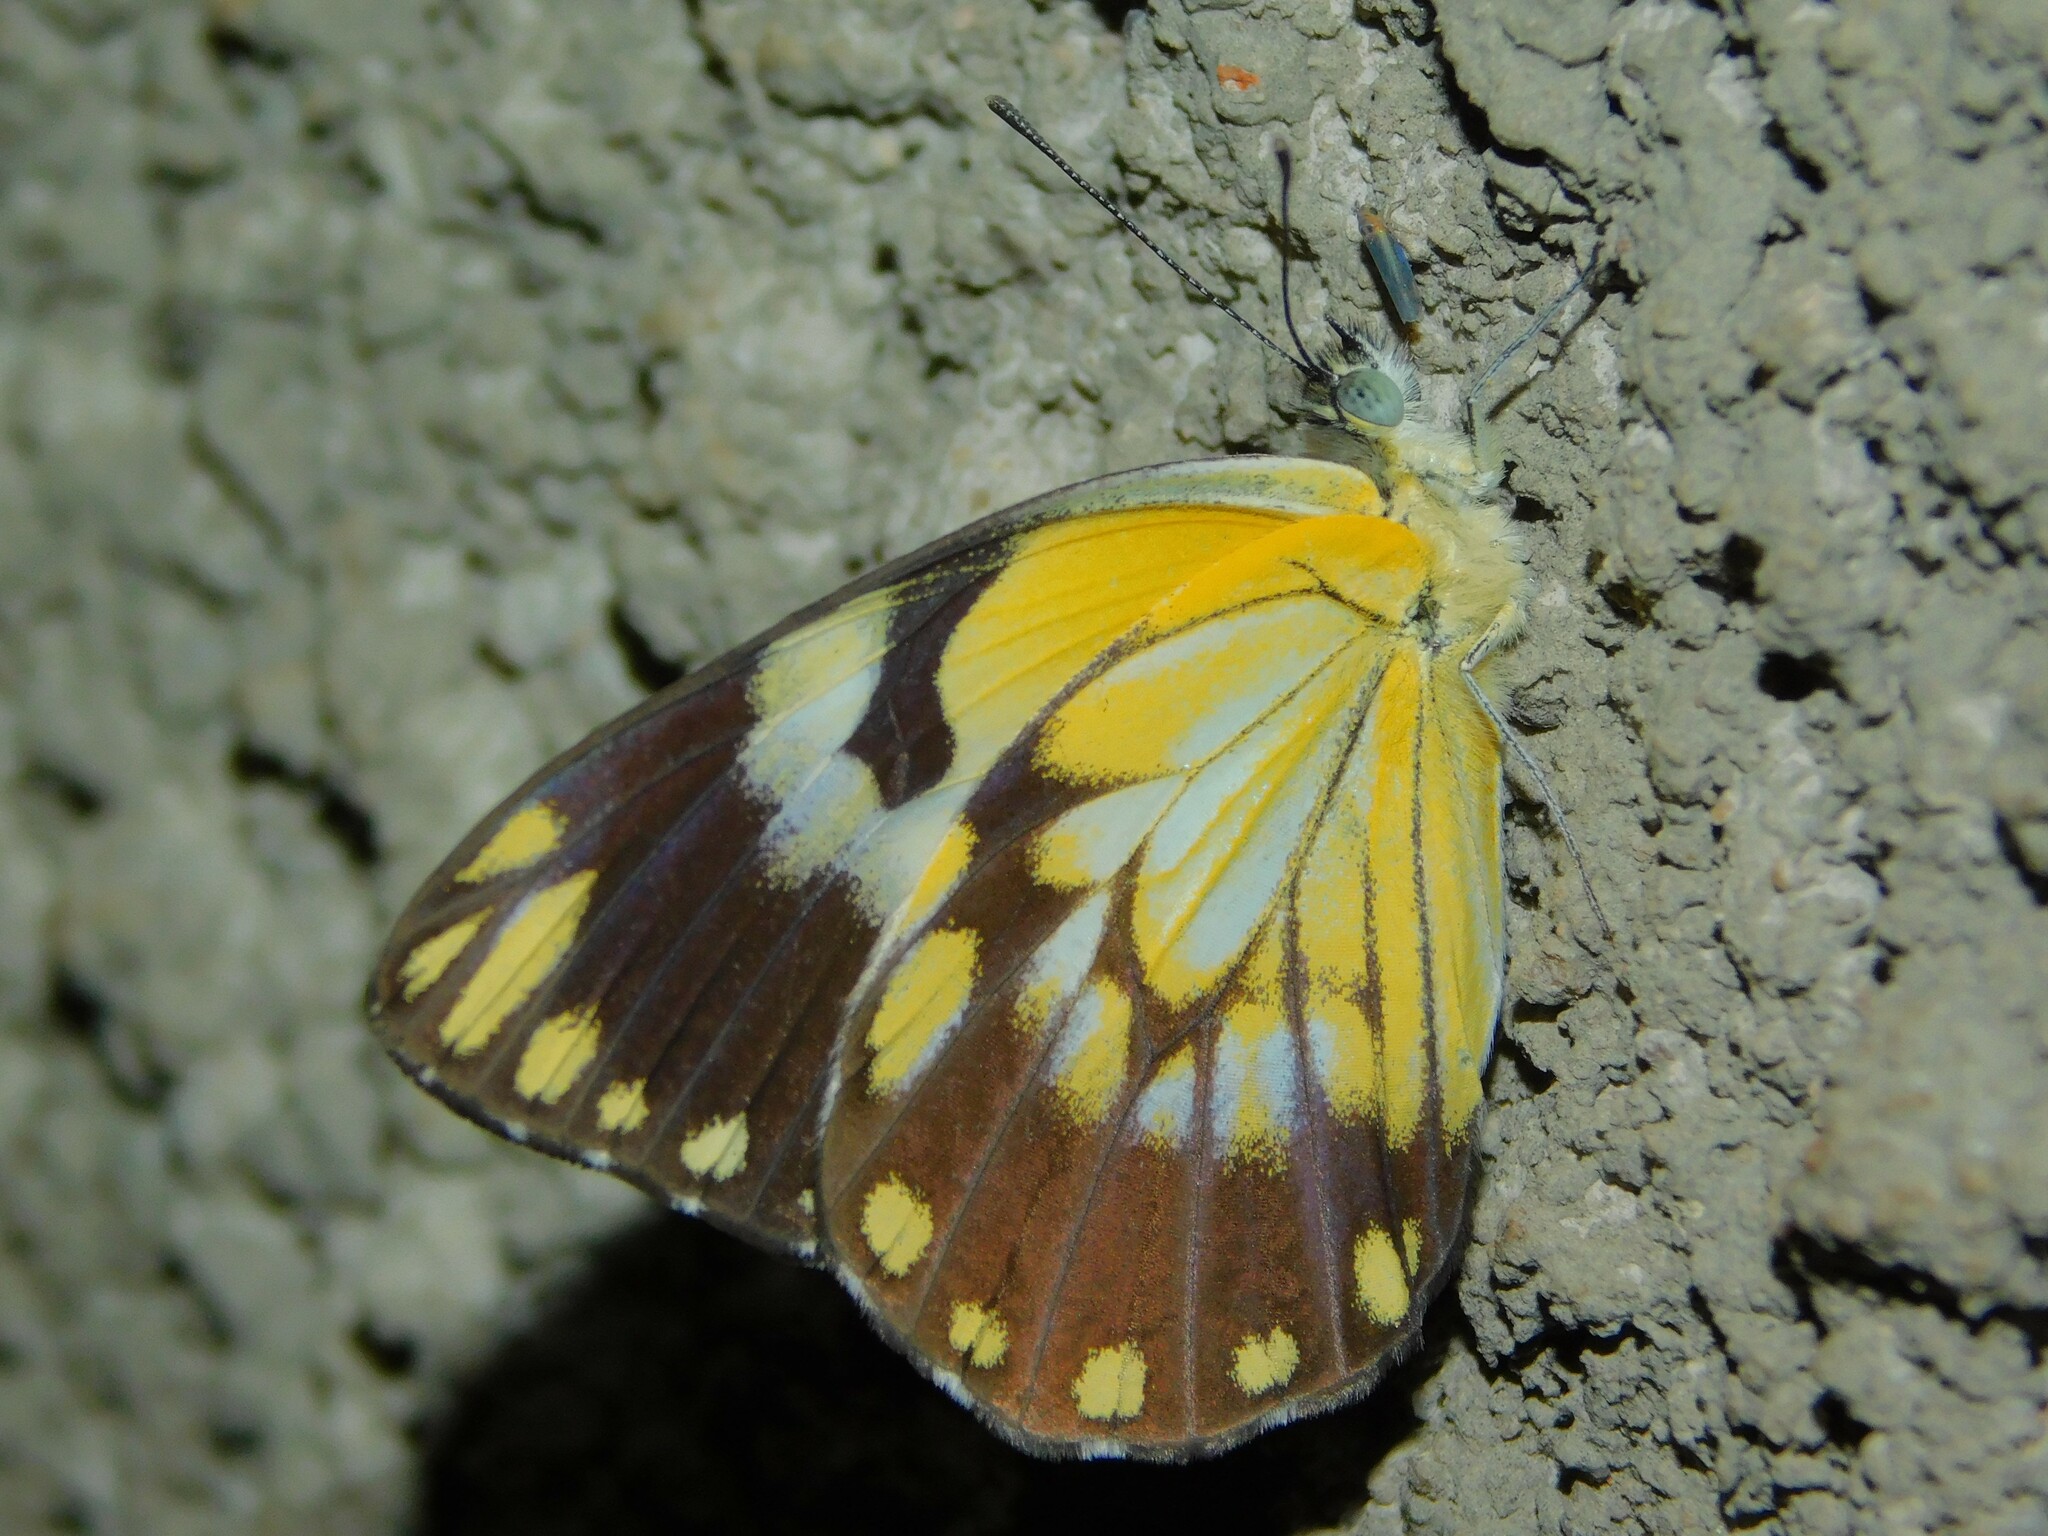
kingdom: Animalia
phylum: Arthropoda
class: Insecta
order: Lepidoptera
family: Pieridae
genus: Belenois
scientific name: Belenois creona
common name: African caper white
